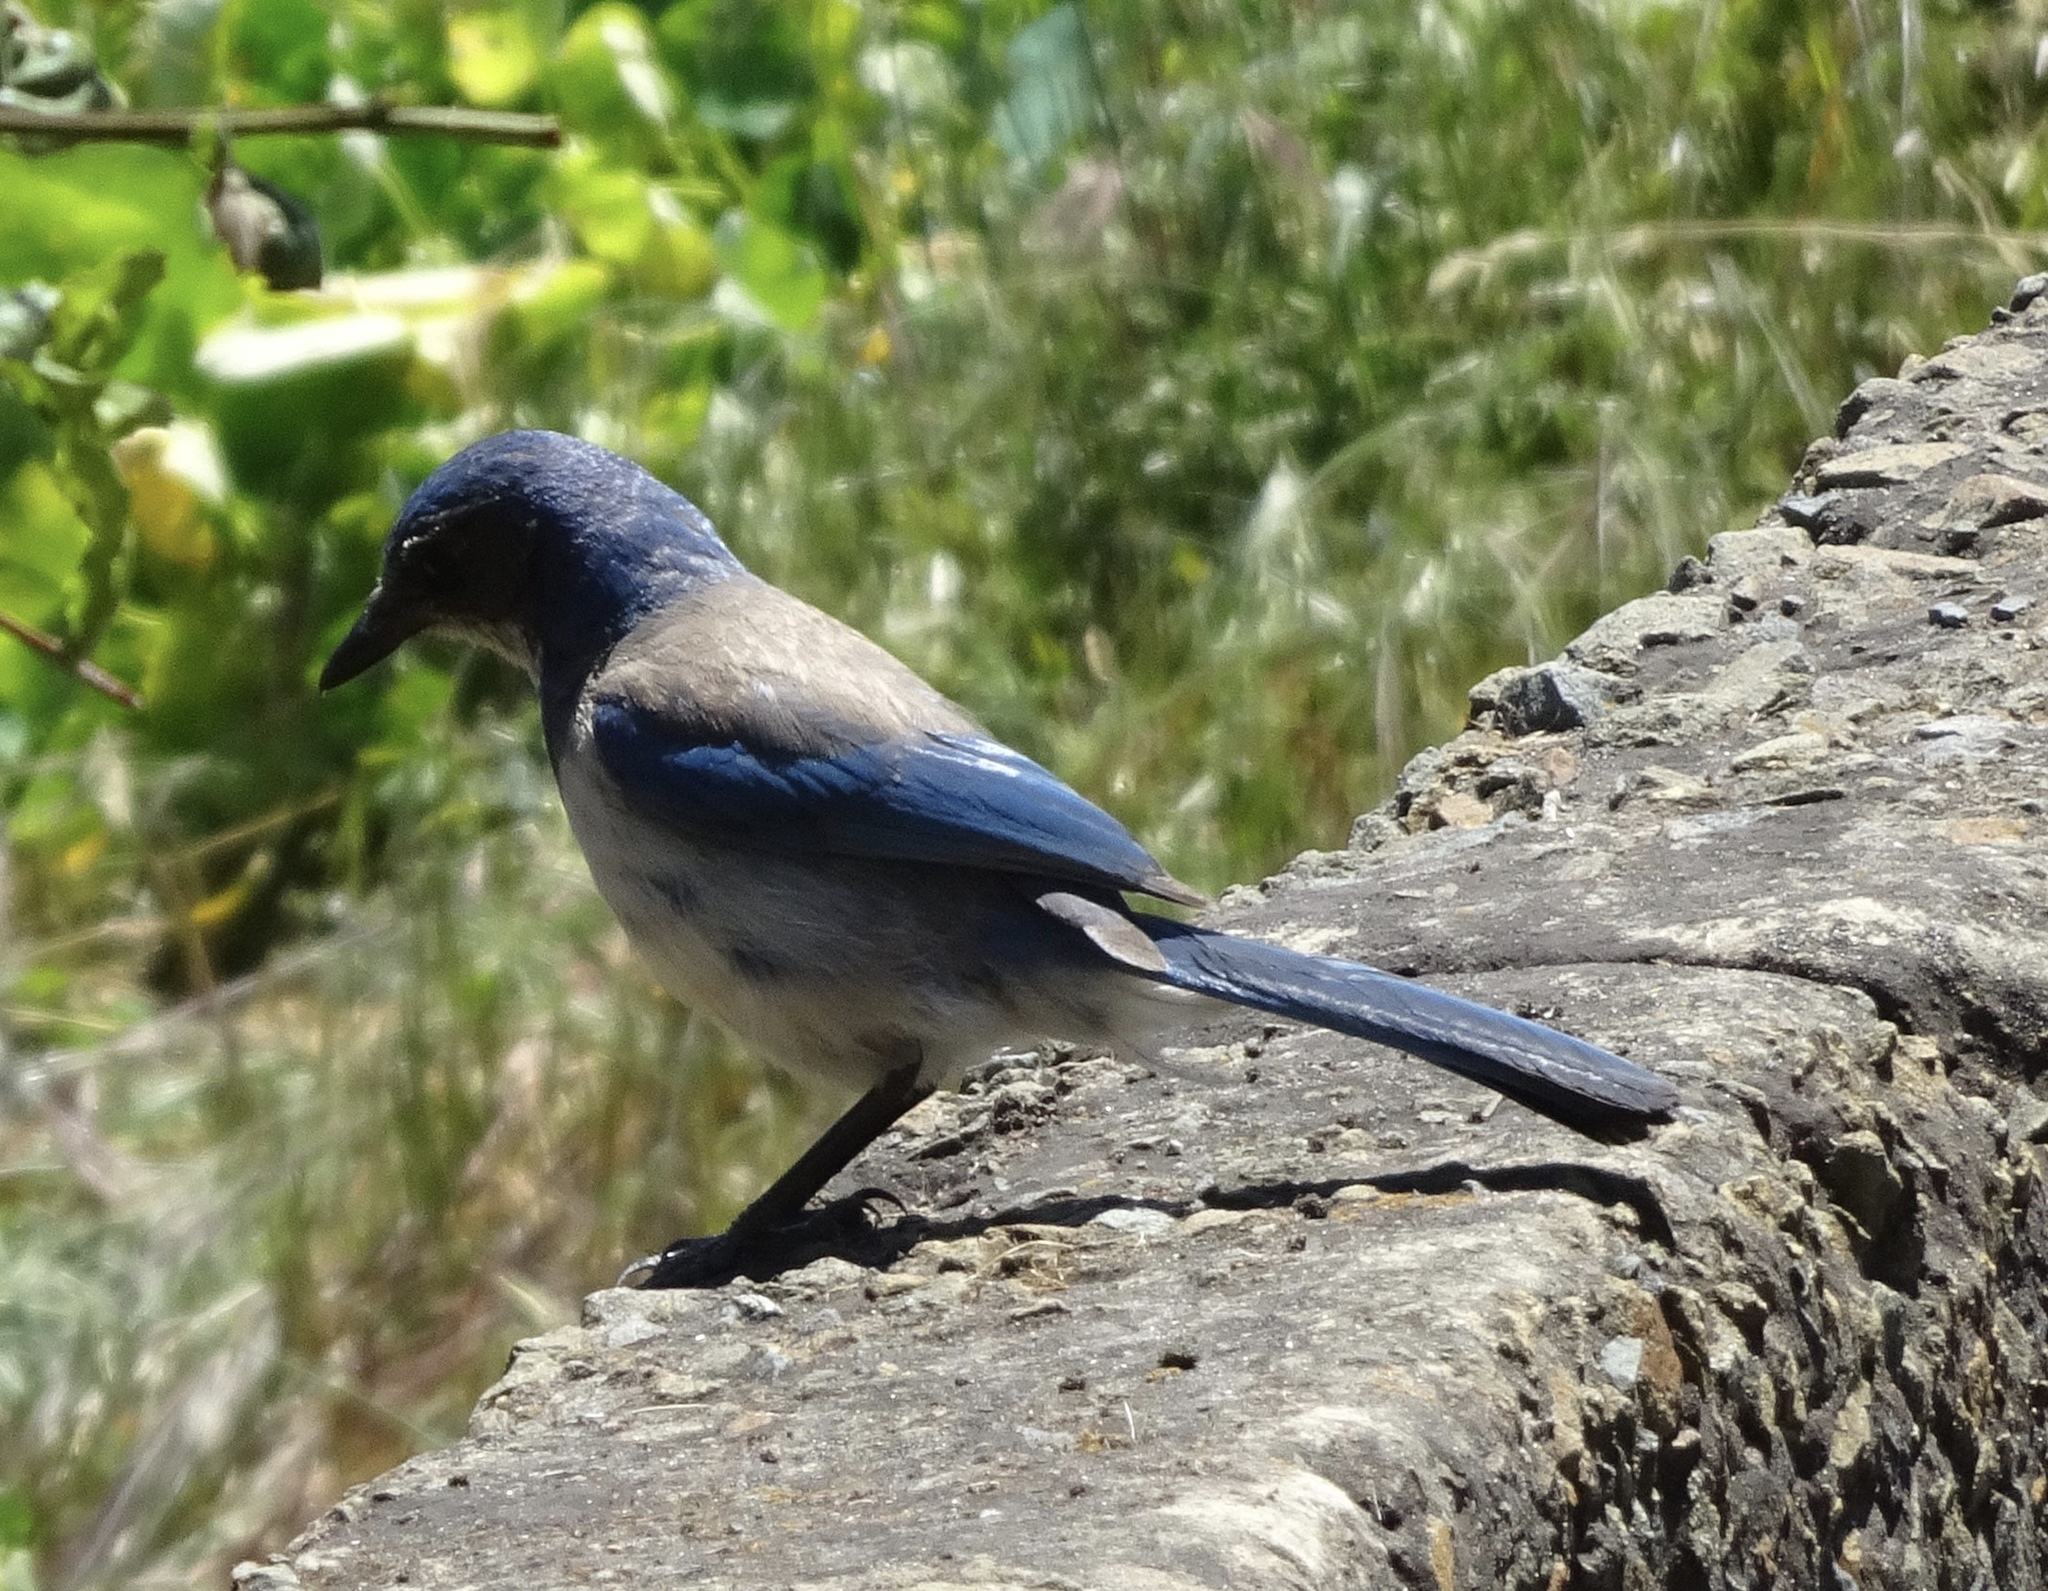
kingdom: Animalia
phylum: Chordata
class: Aves
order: Passeriformes
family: Corvidae
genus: Aphelocoma
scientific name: Aphelocoma californica
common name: California scrub-jay
